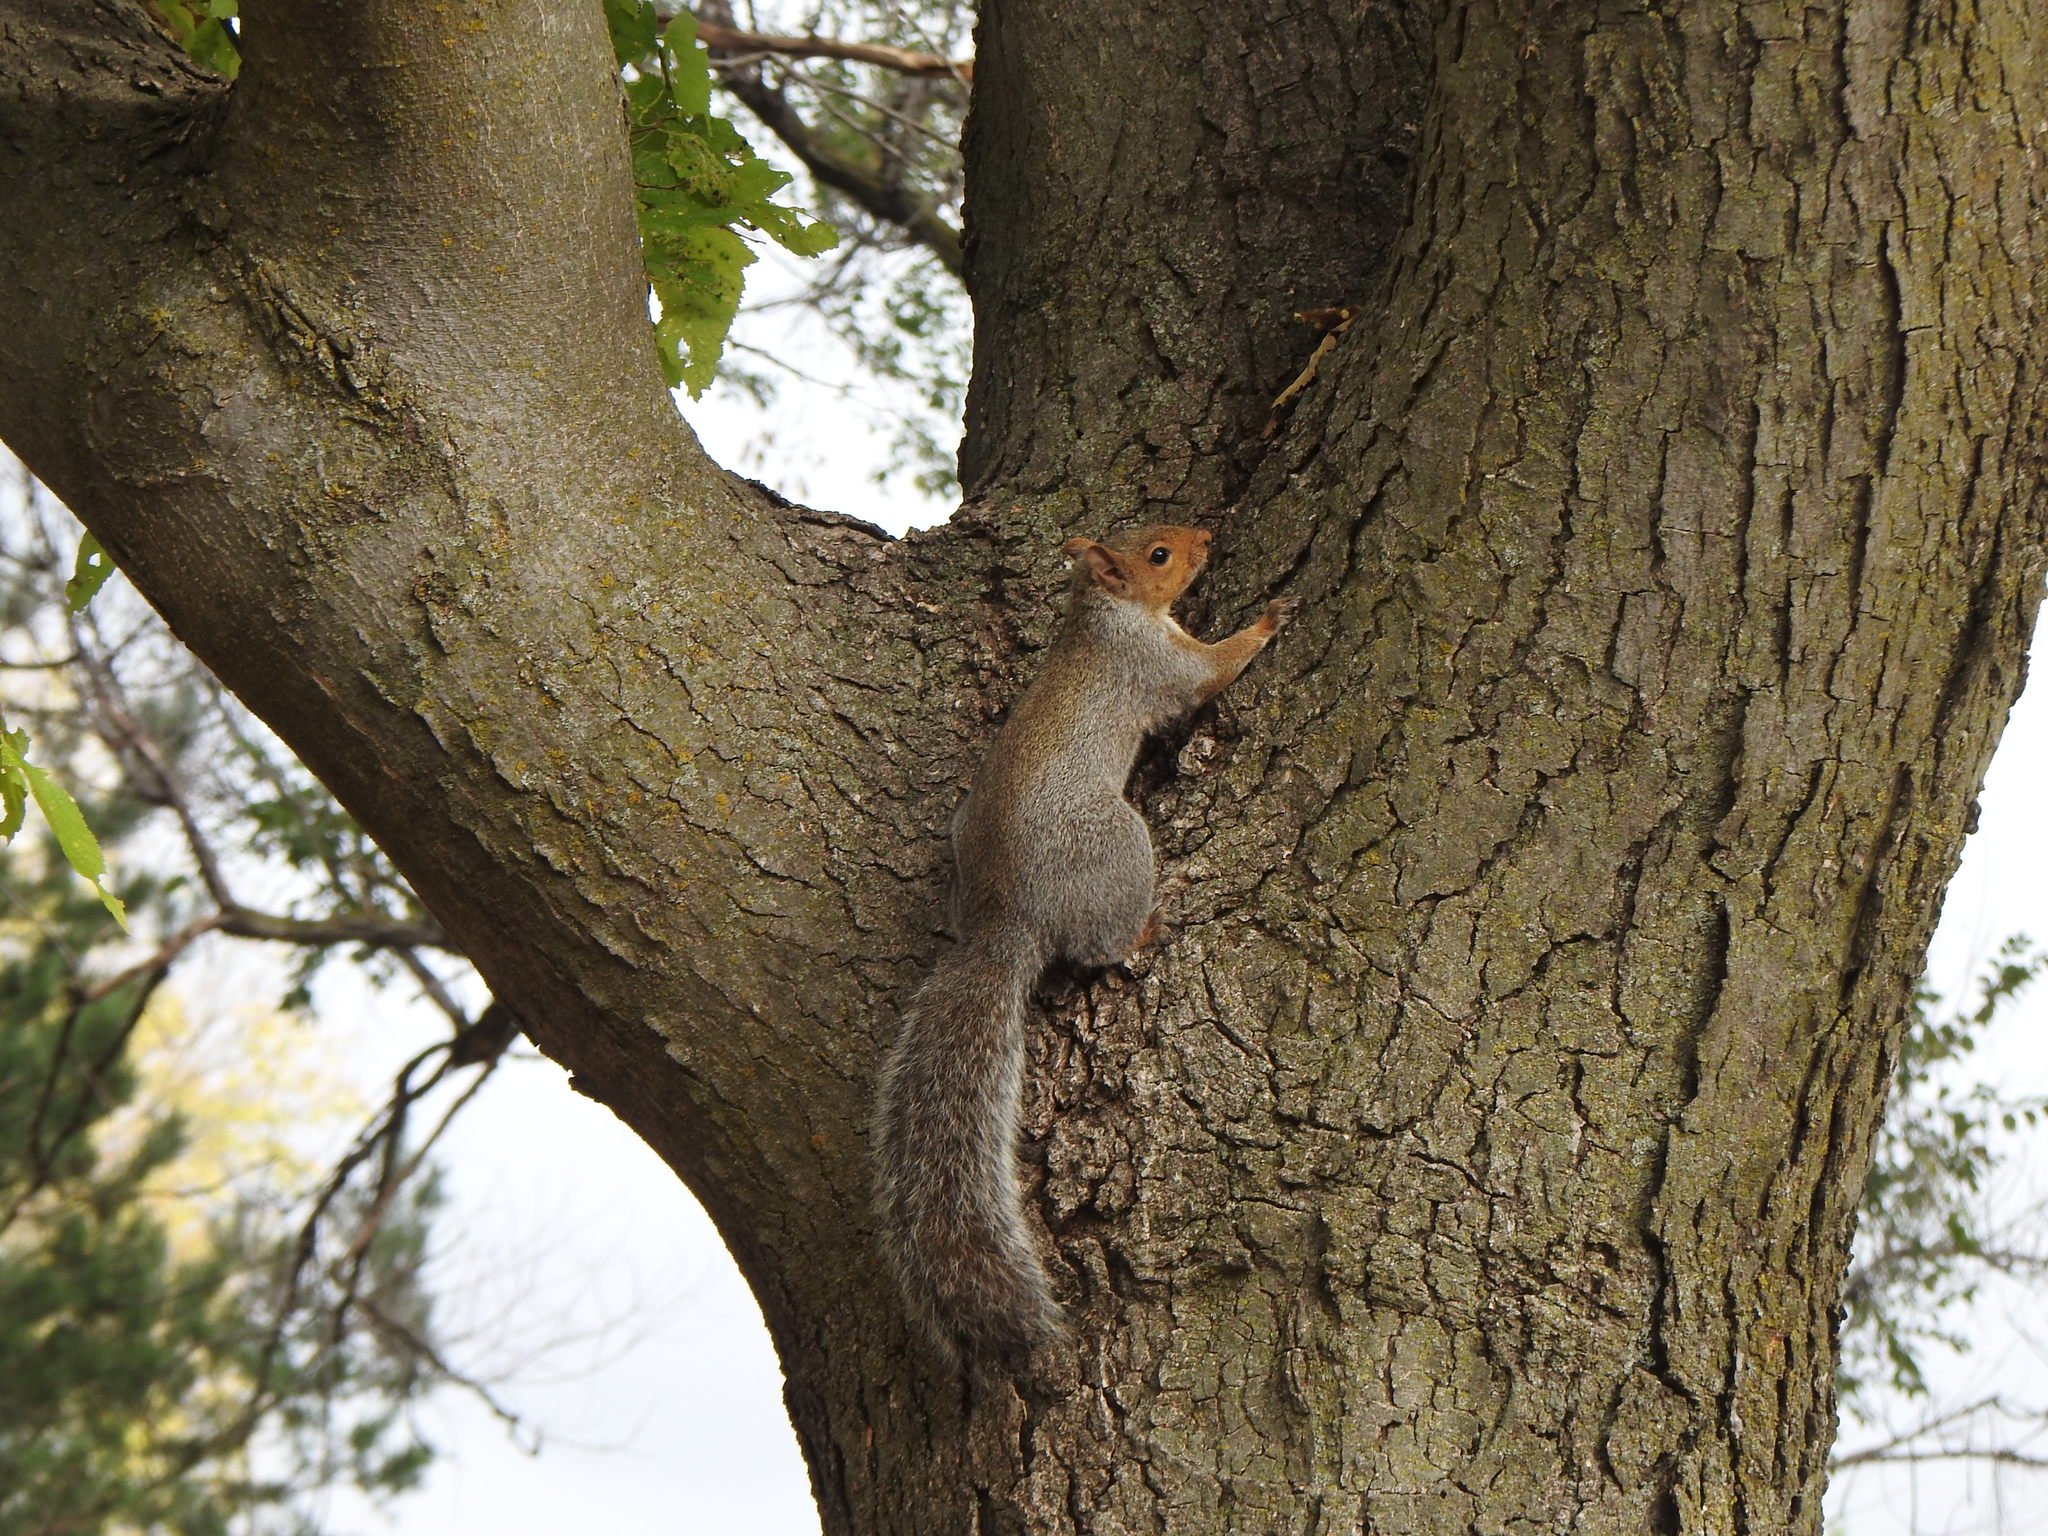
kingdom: Animalia
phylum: Chordata
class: Mammalia
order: Rodentia
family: Sciuridae
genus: Sciurus
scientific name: Sciurus carolinensis
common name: Eastern gray squirrel
